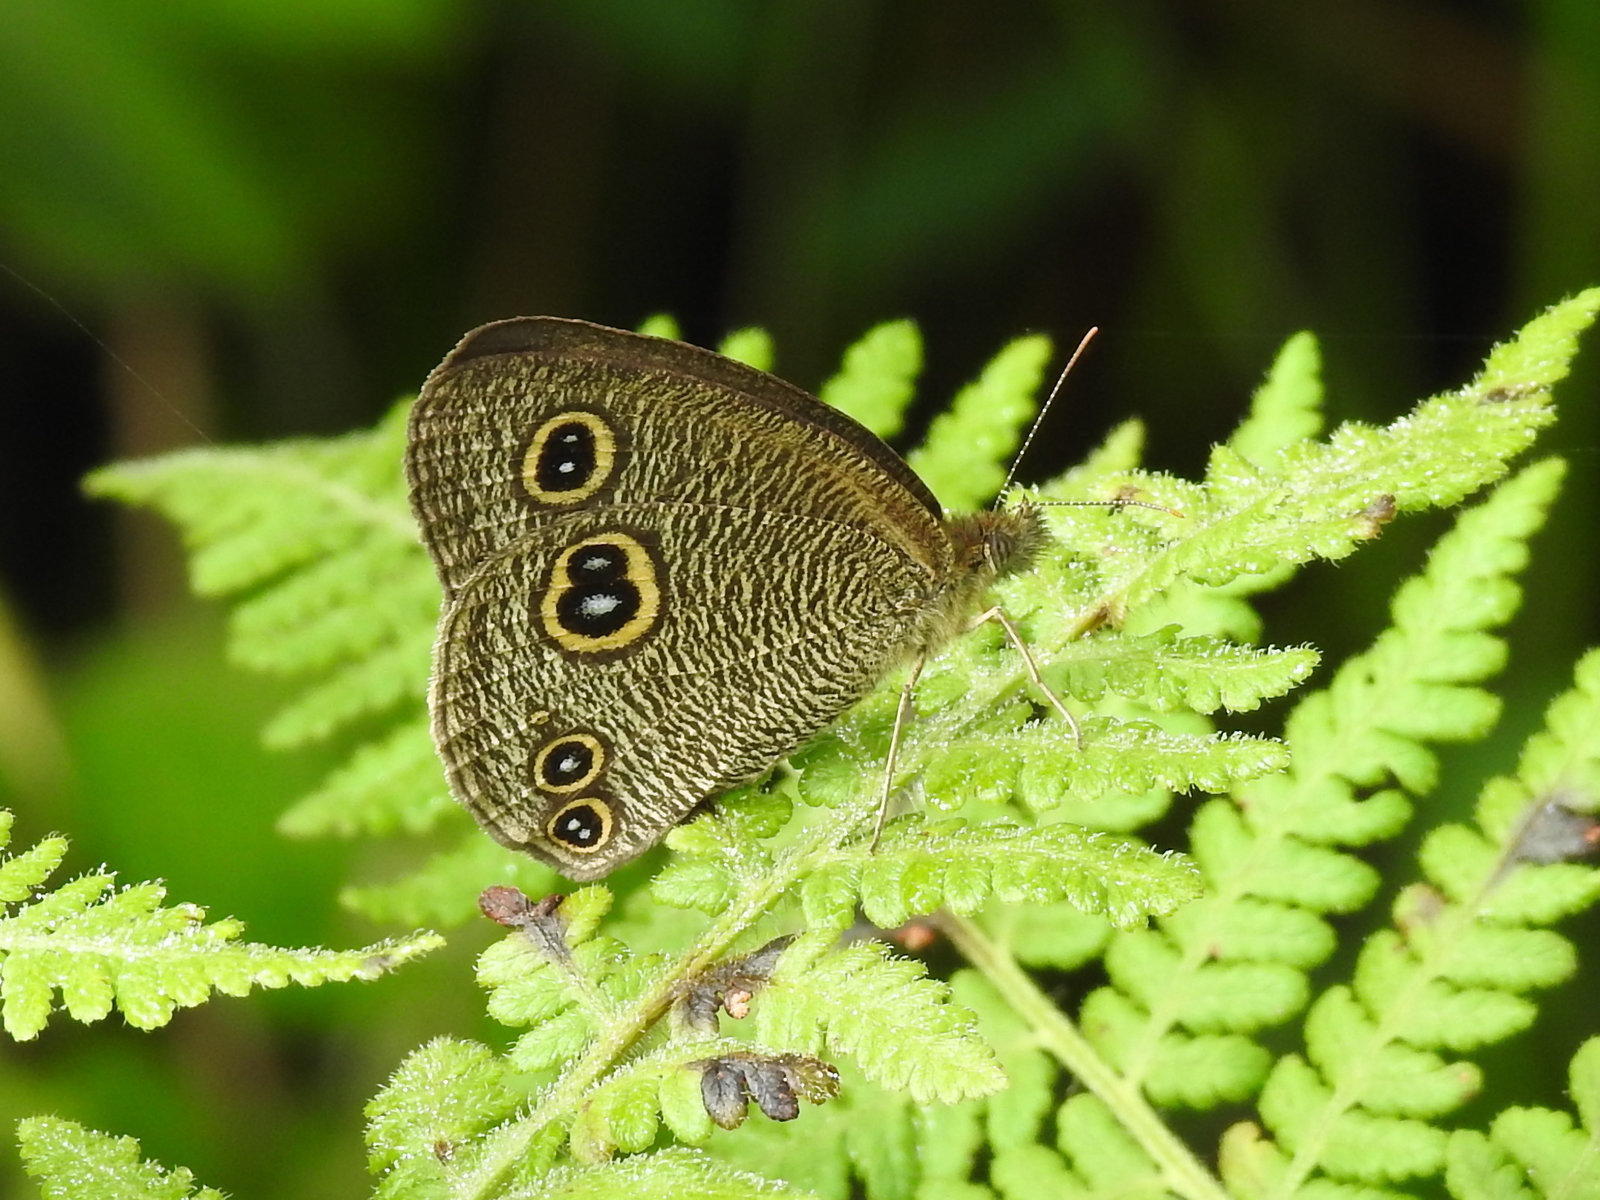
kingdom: Animalia
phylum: Arthropoda
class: Insecta
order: Lepidoptera
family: Nymphalidae
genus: Ypthima
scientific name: Ypthima huebneri
